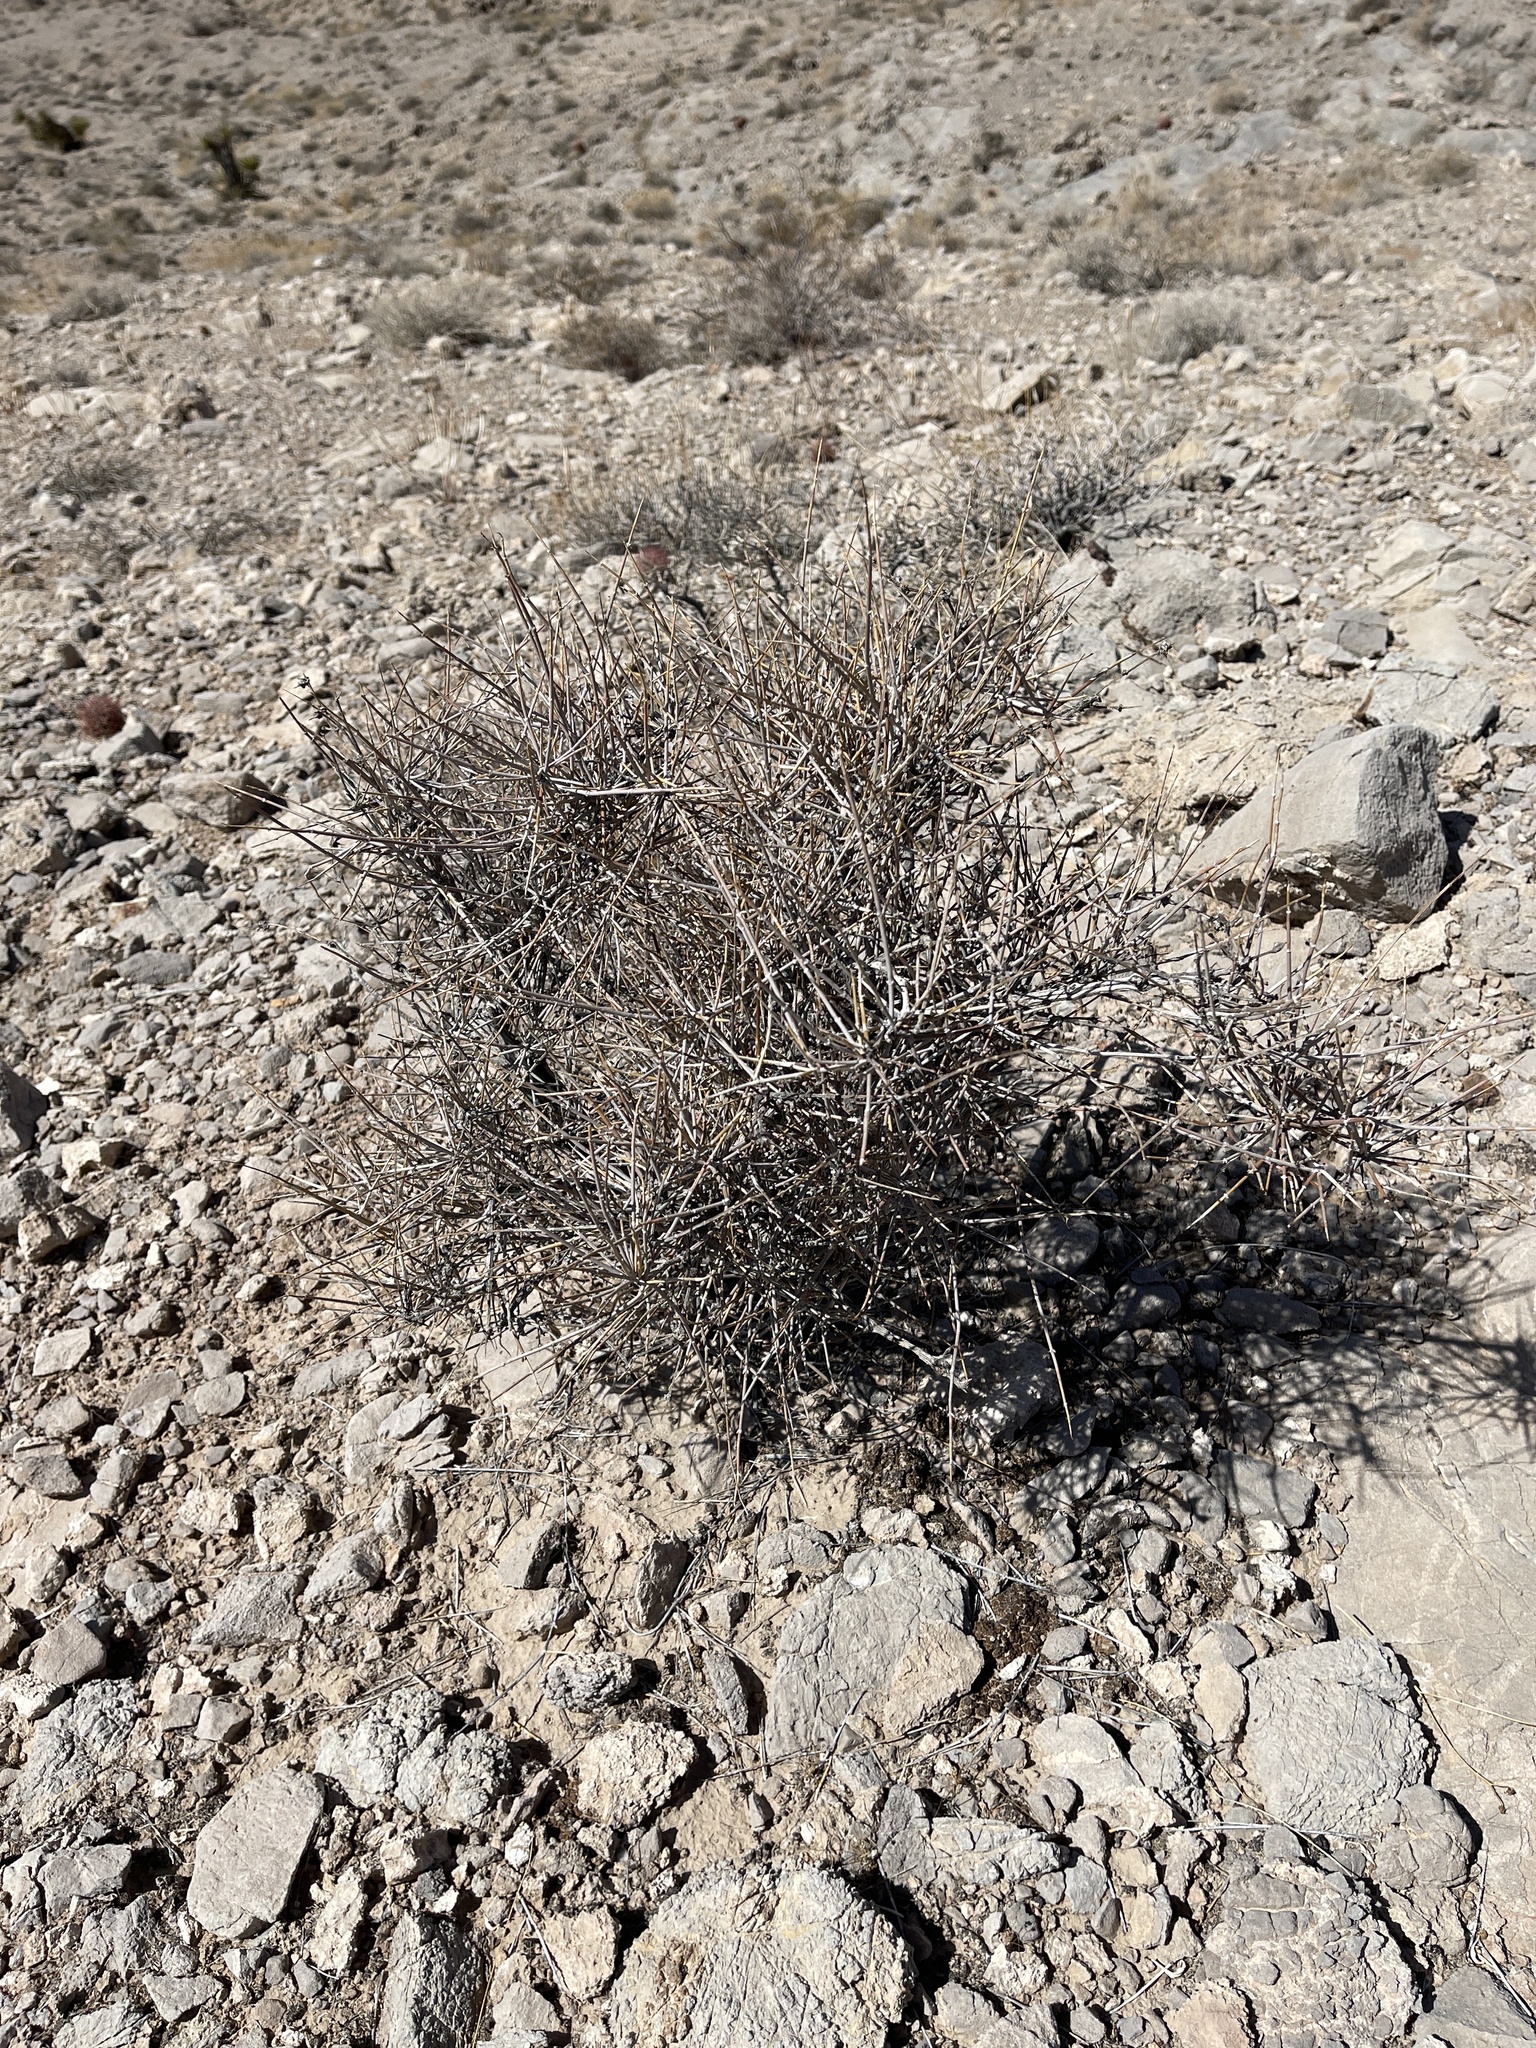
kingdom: Plantae
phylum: Tracheophyta
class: Gnetopsida
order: Ephedrales
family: Ephedraceae
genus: Ephedra
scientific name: Ephedra nevadensis
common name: Gray ephedra
